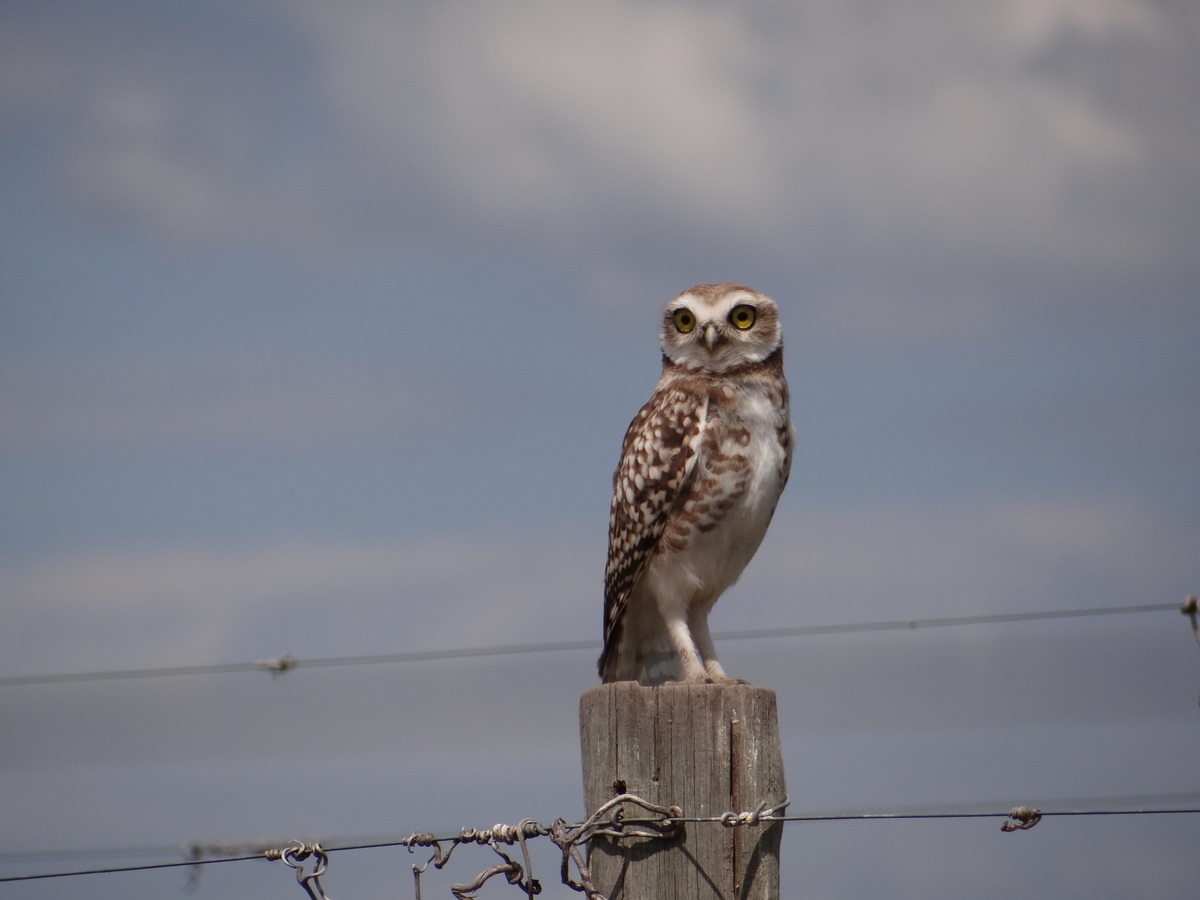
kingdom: Animalia
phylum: Chordata
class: Aves
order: Strigiformes
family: Strigidae
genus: Athene
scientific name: Athene cunicularia
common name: Burrowing owl
